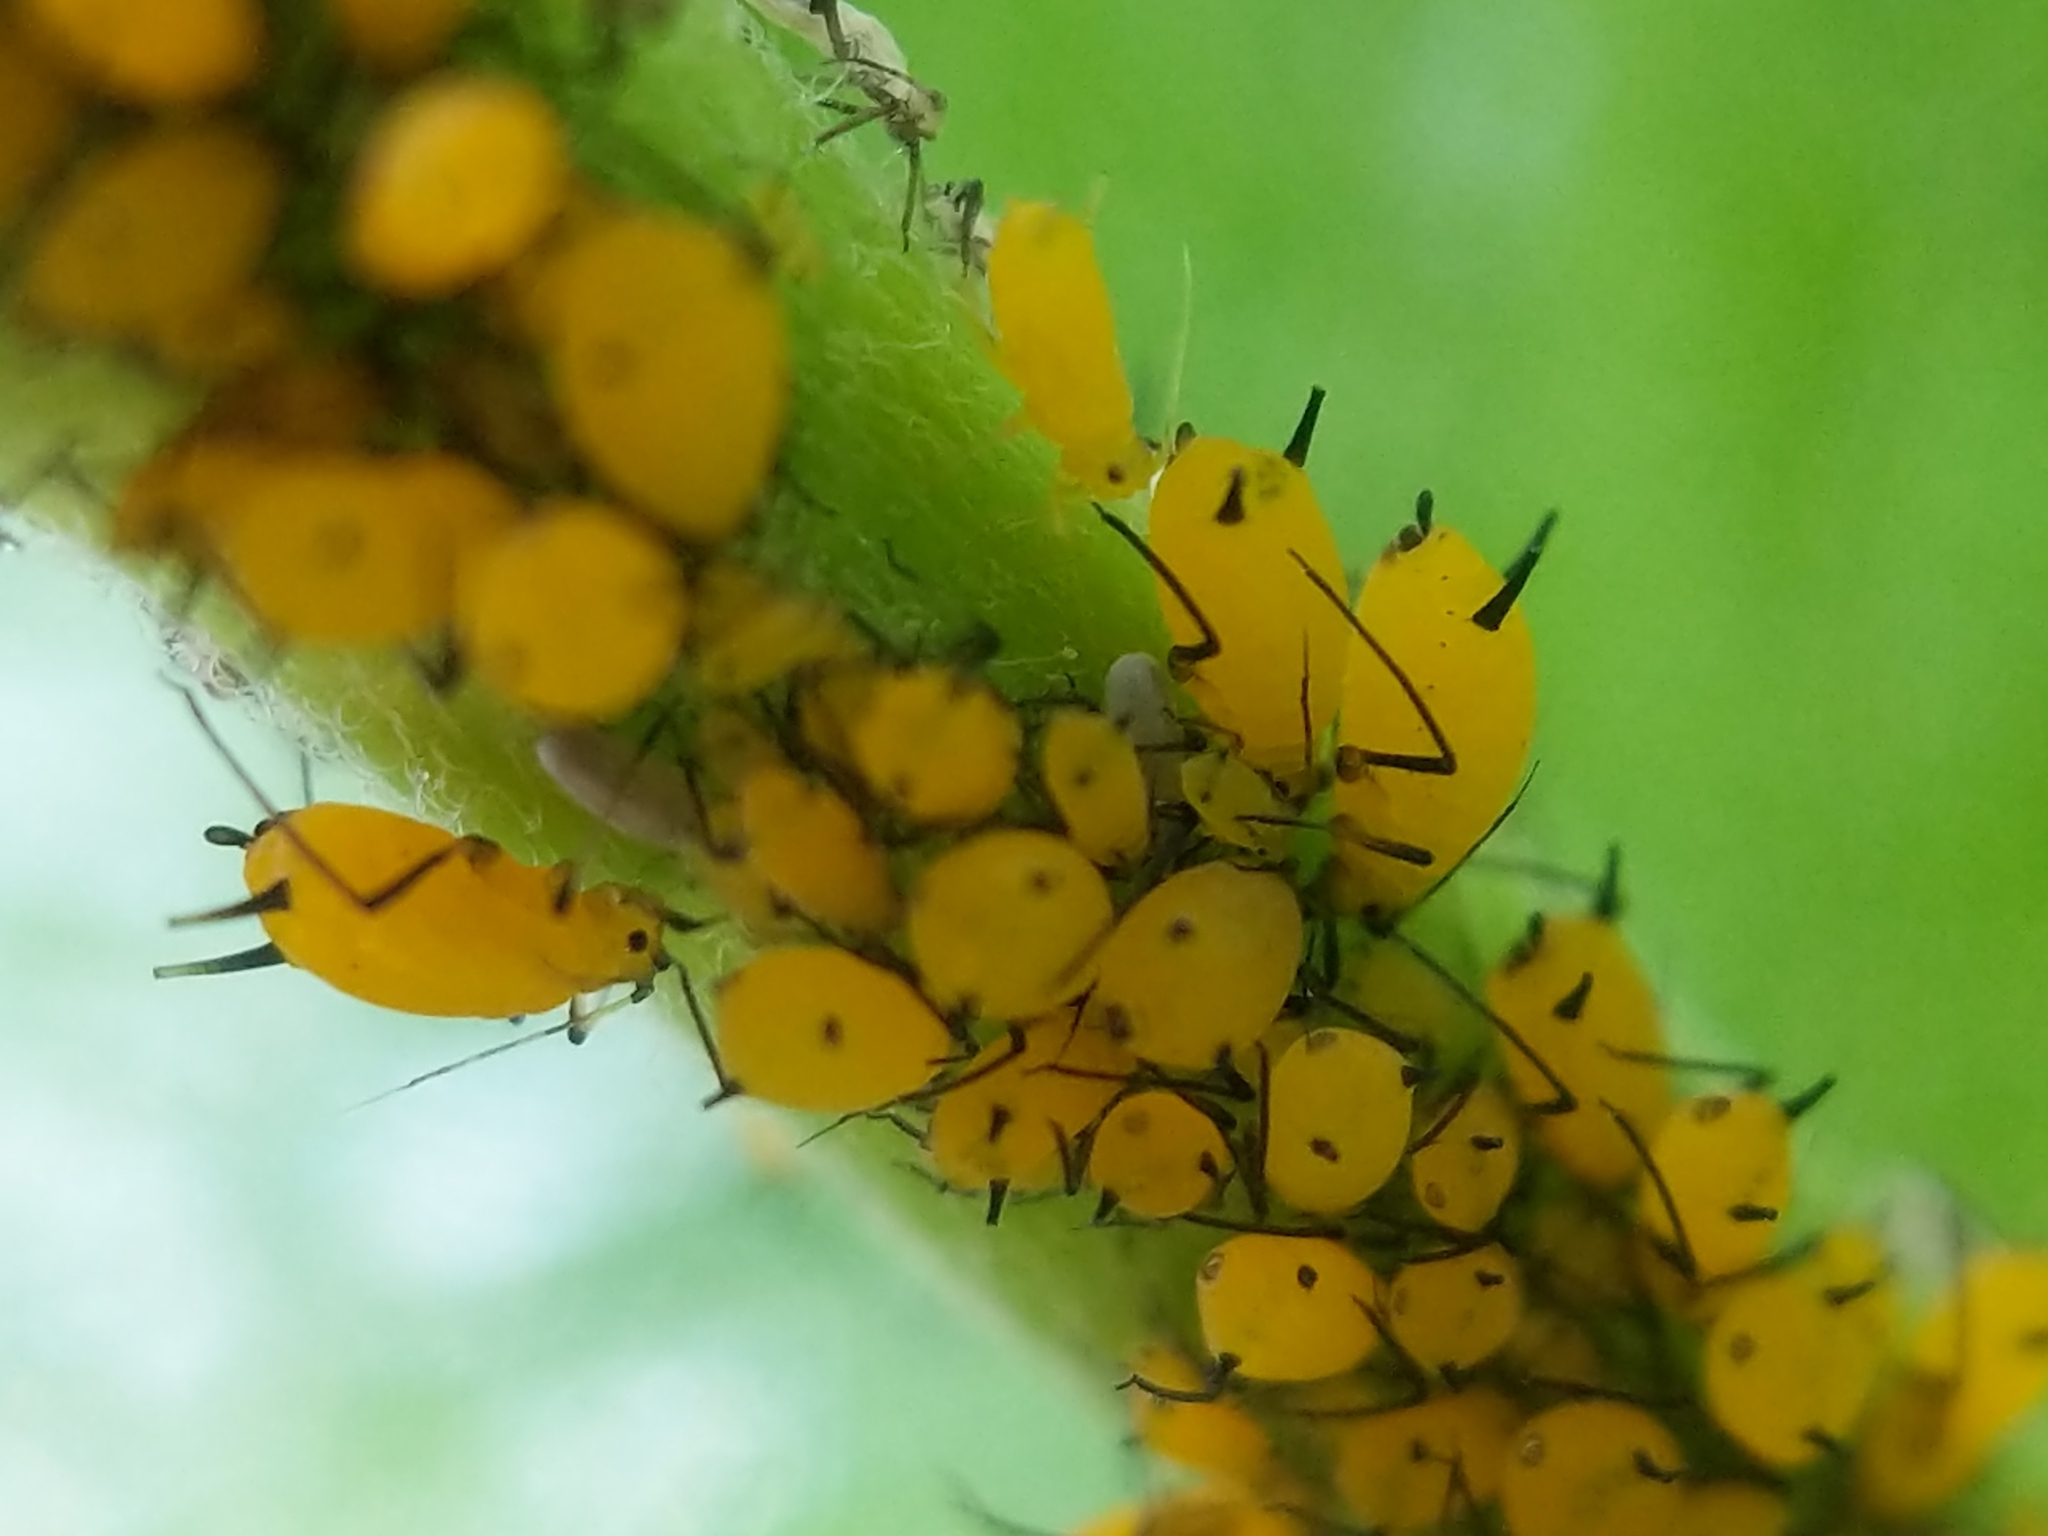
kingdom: Animalia
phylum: Arthropoda
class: Insecta
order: Hemiptera
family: Aphididae
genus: Aphis
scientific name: Aphis nerii
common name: Oleander aphid
